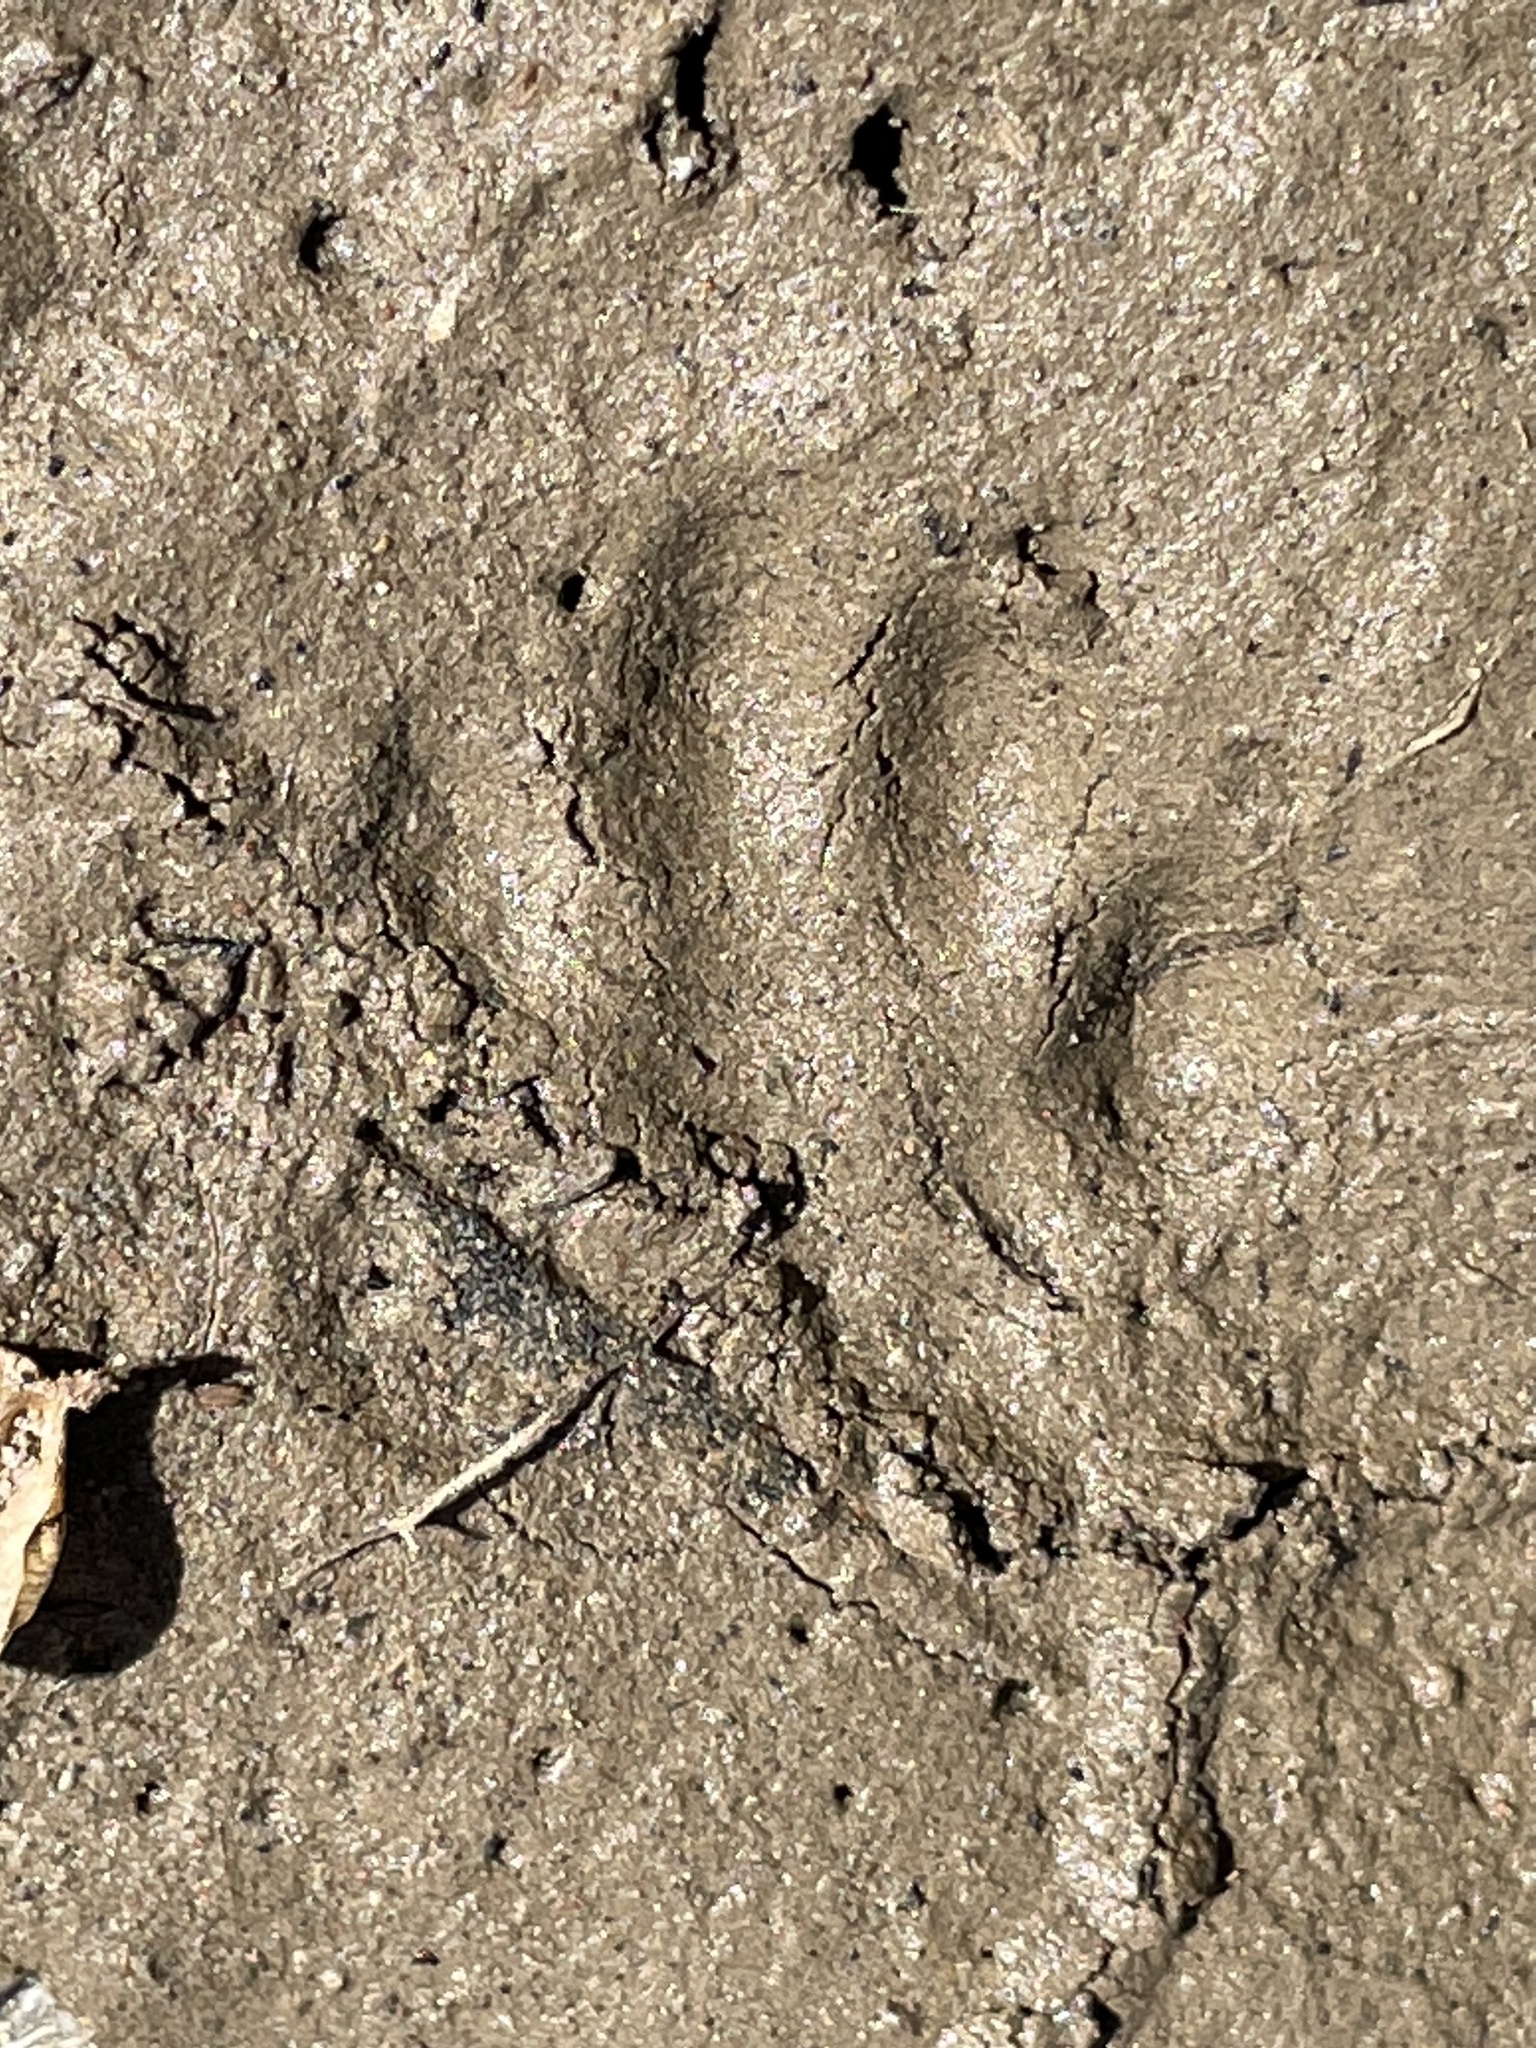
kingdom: Animalia
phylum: Chordata
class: Mammalia
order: Carnivora
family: Mephitidae
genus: Mephitis
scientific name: Mephitis mephitis
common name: Striped skunk
